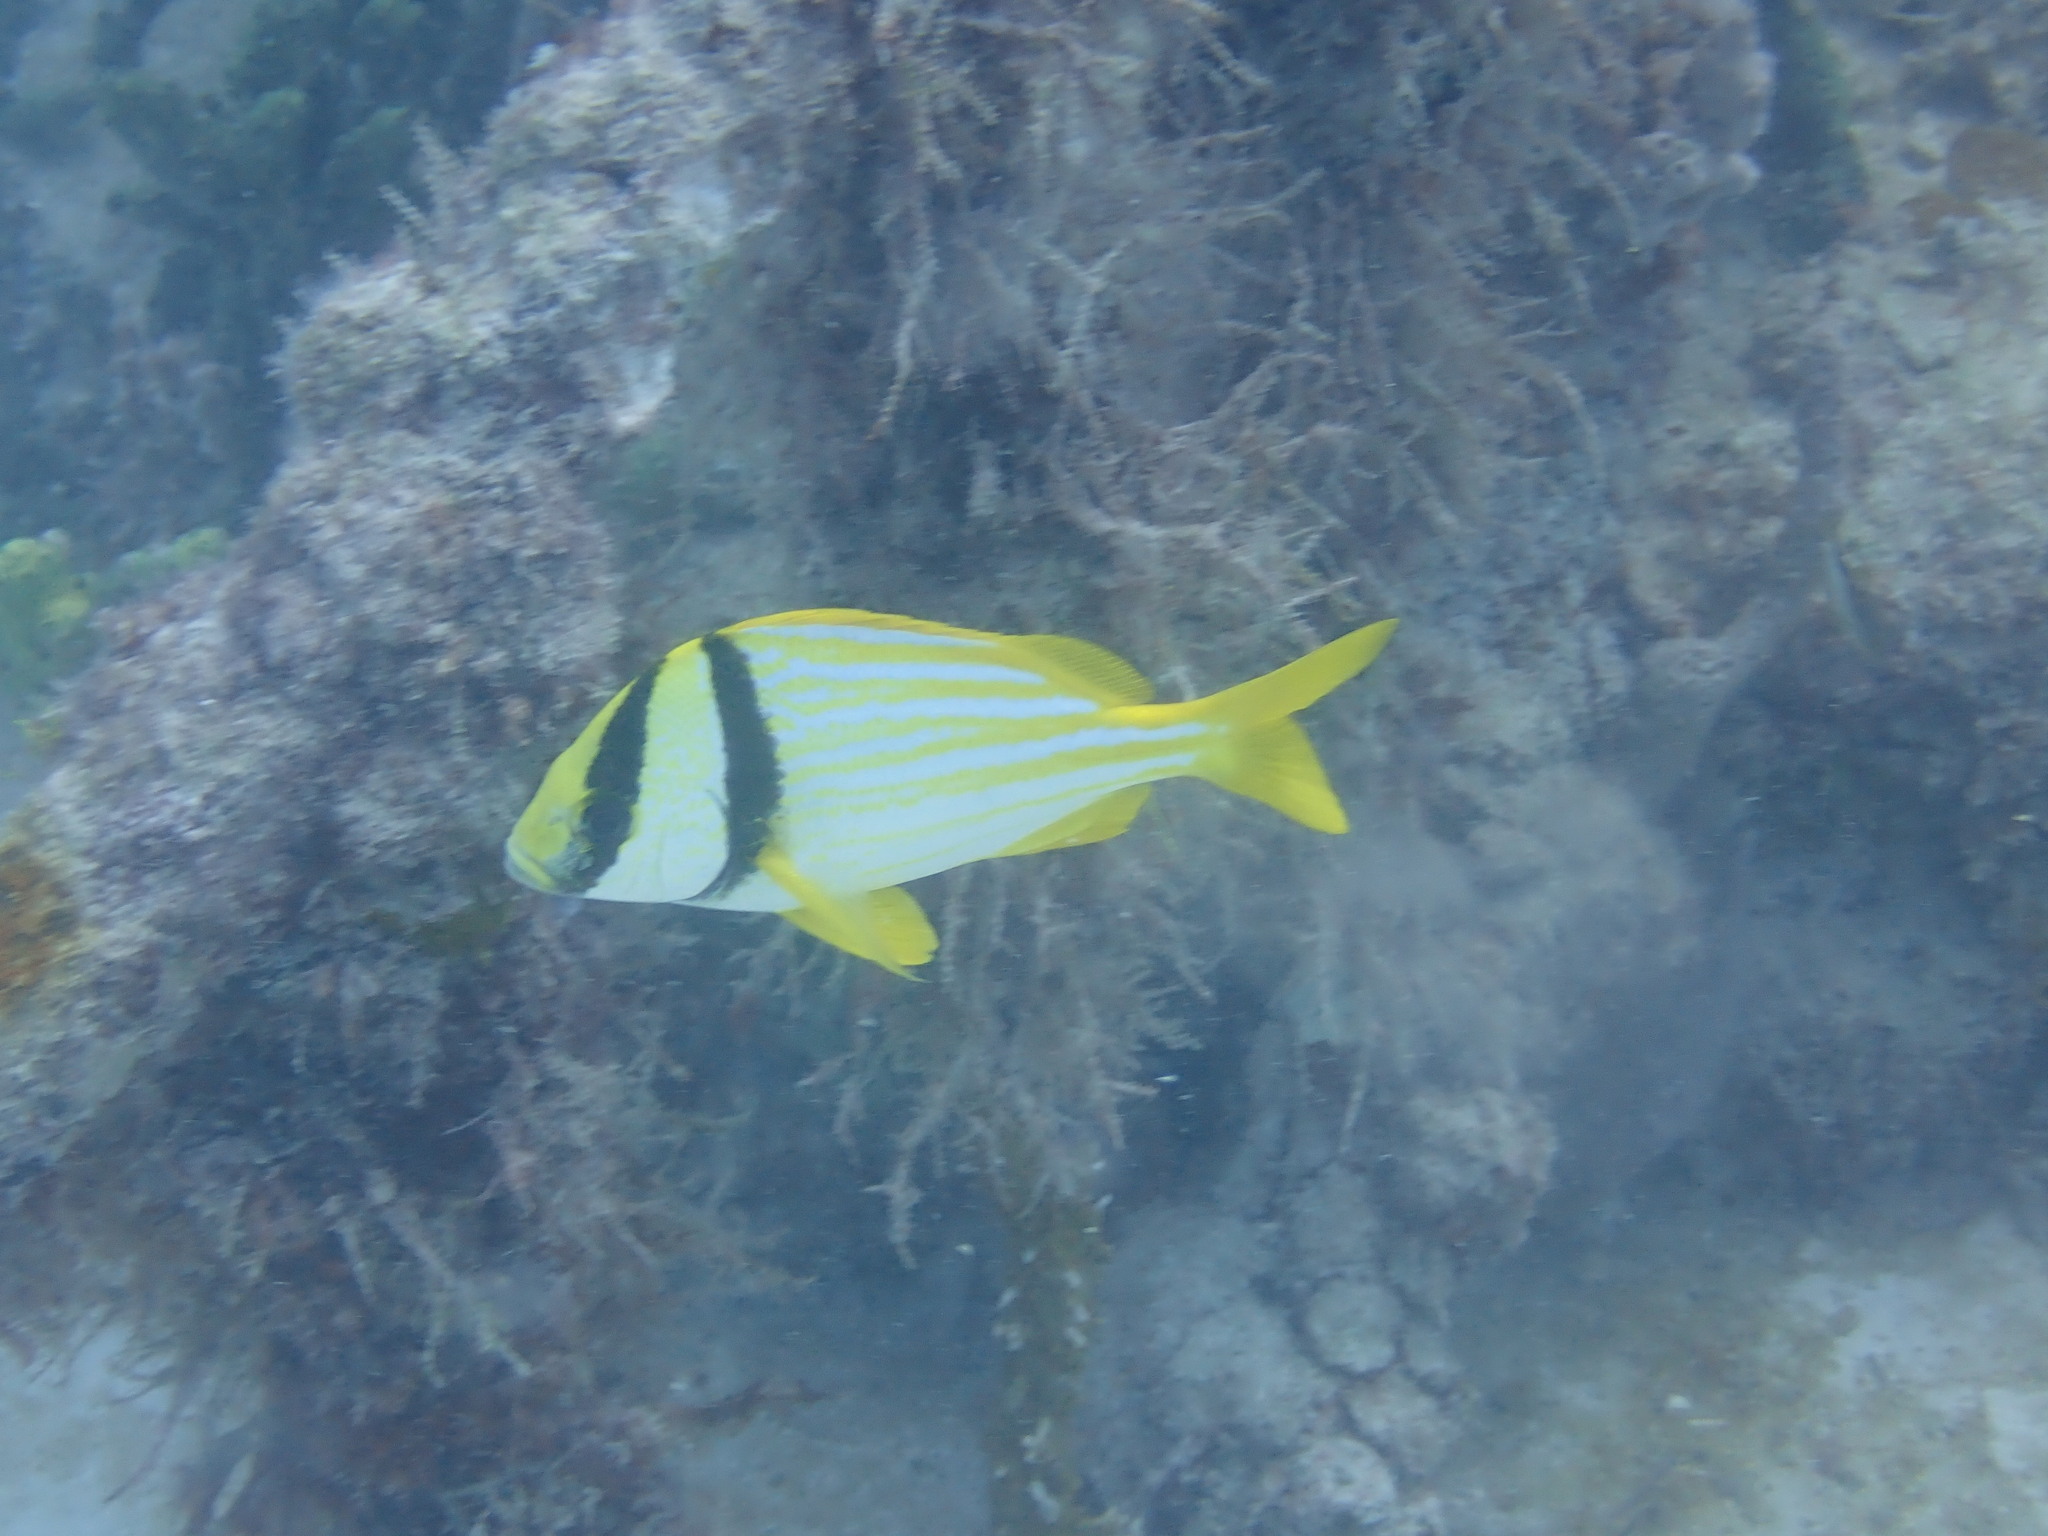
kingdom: Animalia
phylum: Chordata
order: Perciformes
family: Haemulidae
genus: Anisotremus
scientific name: Anisotremus virginicus
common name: Porkfish
